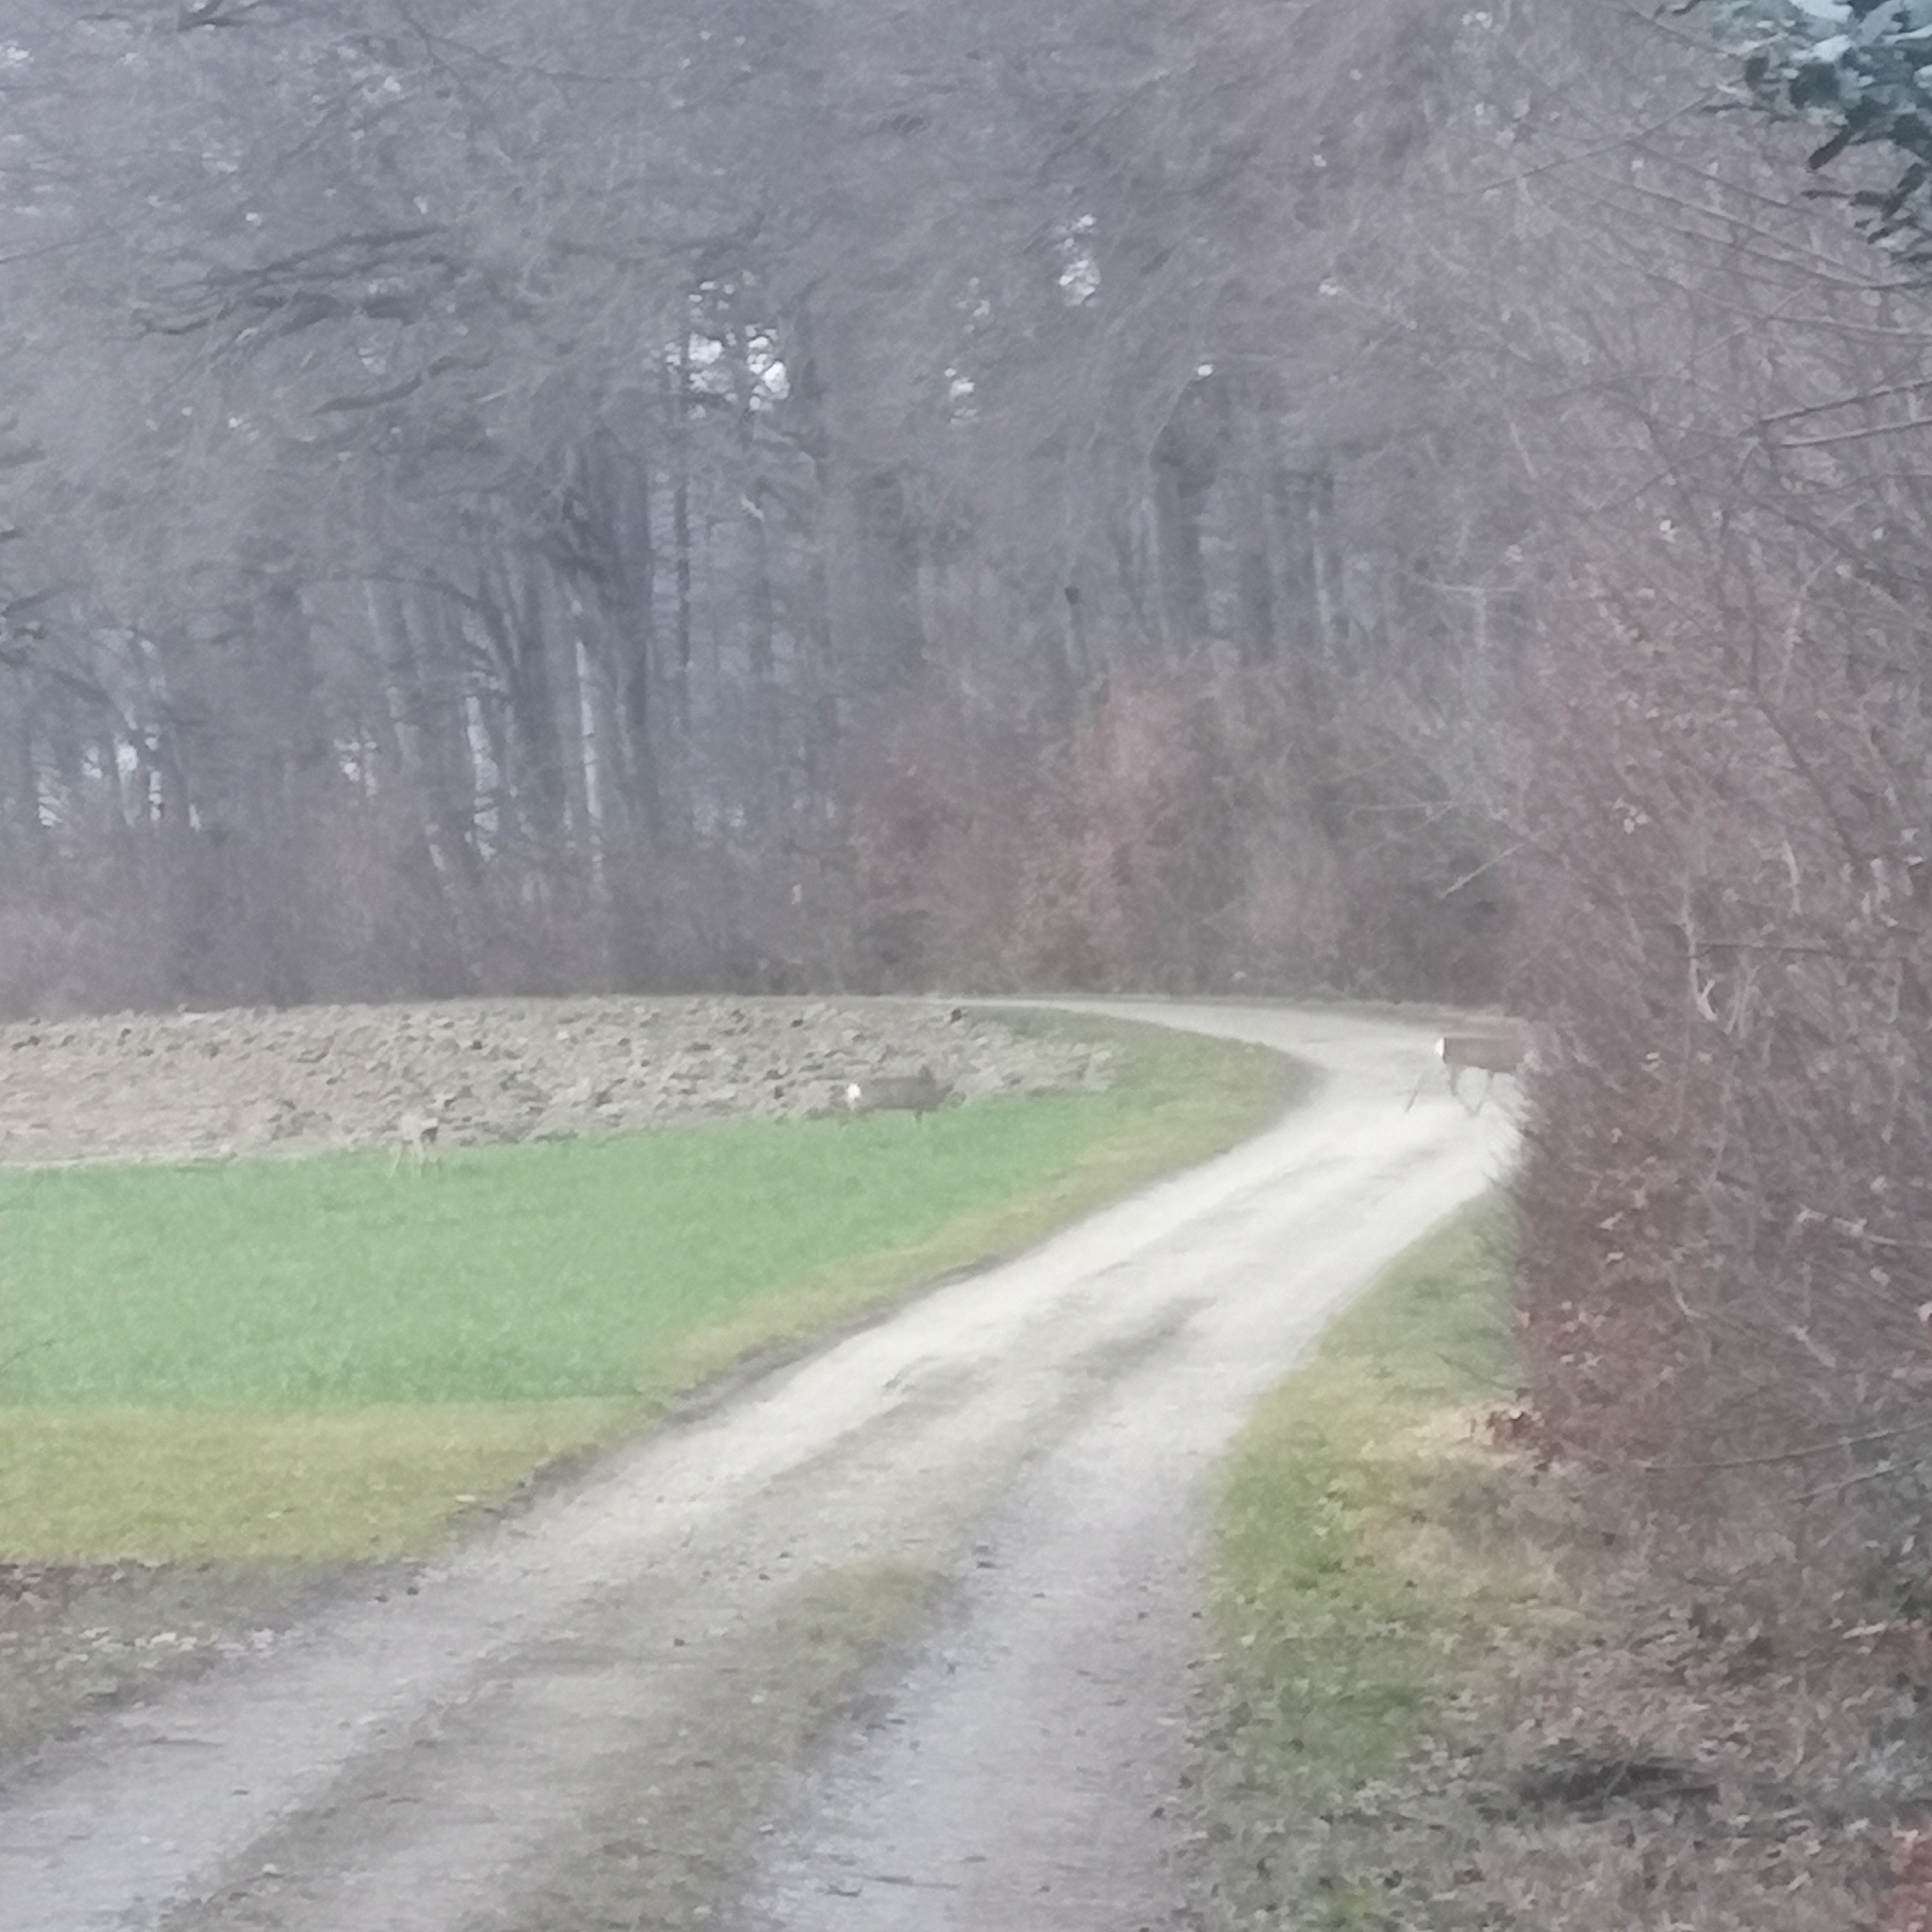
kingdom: Animalia
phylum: Chordata
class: Mammalia
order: Artiodactyla
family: Cervidae
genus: Capreolus
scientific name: Capreolus capreolus
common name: Western roe deer
